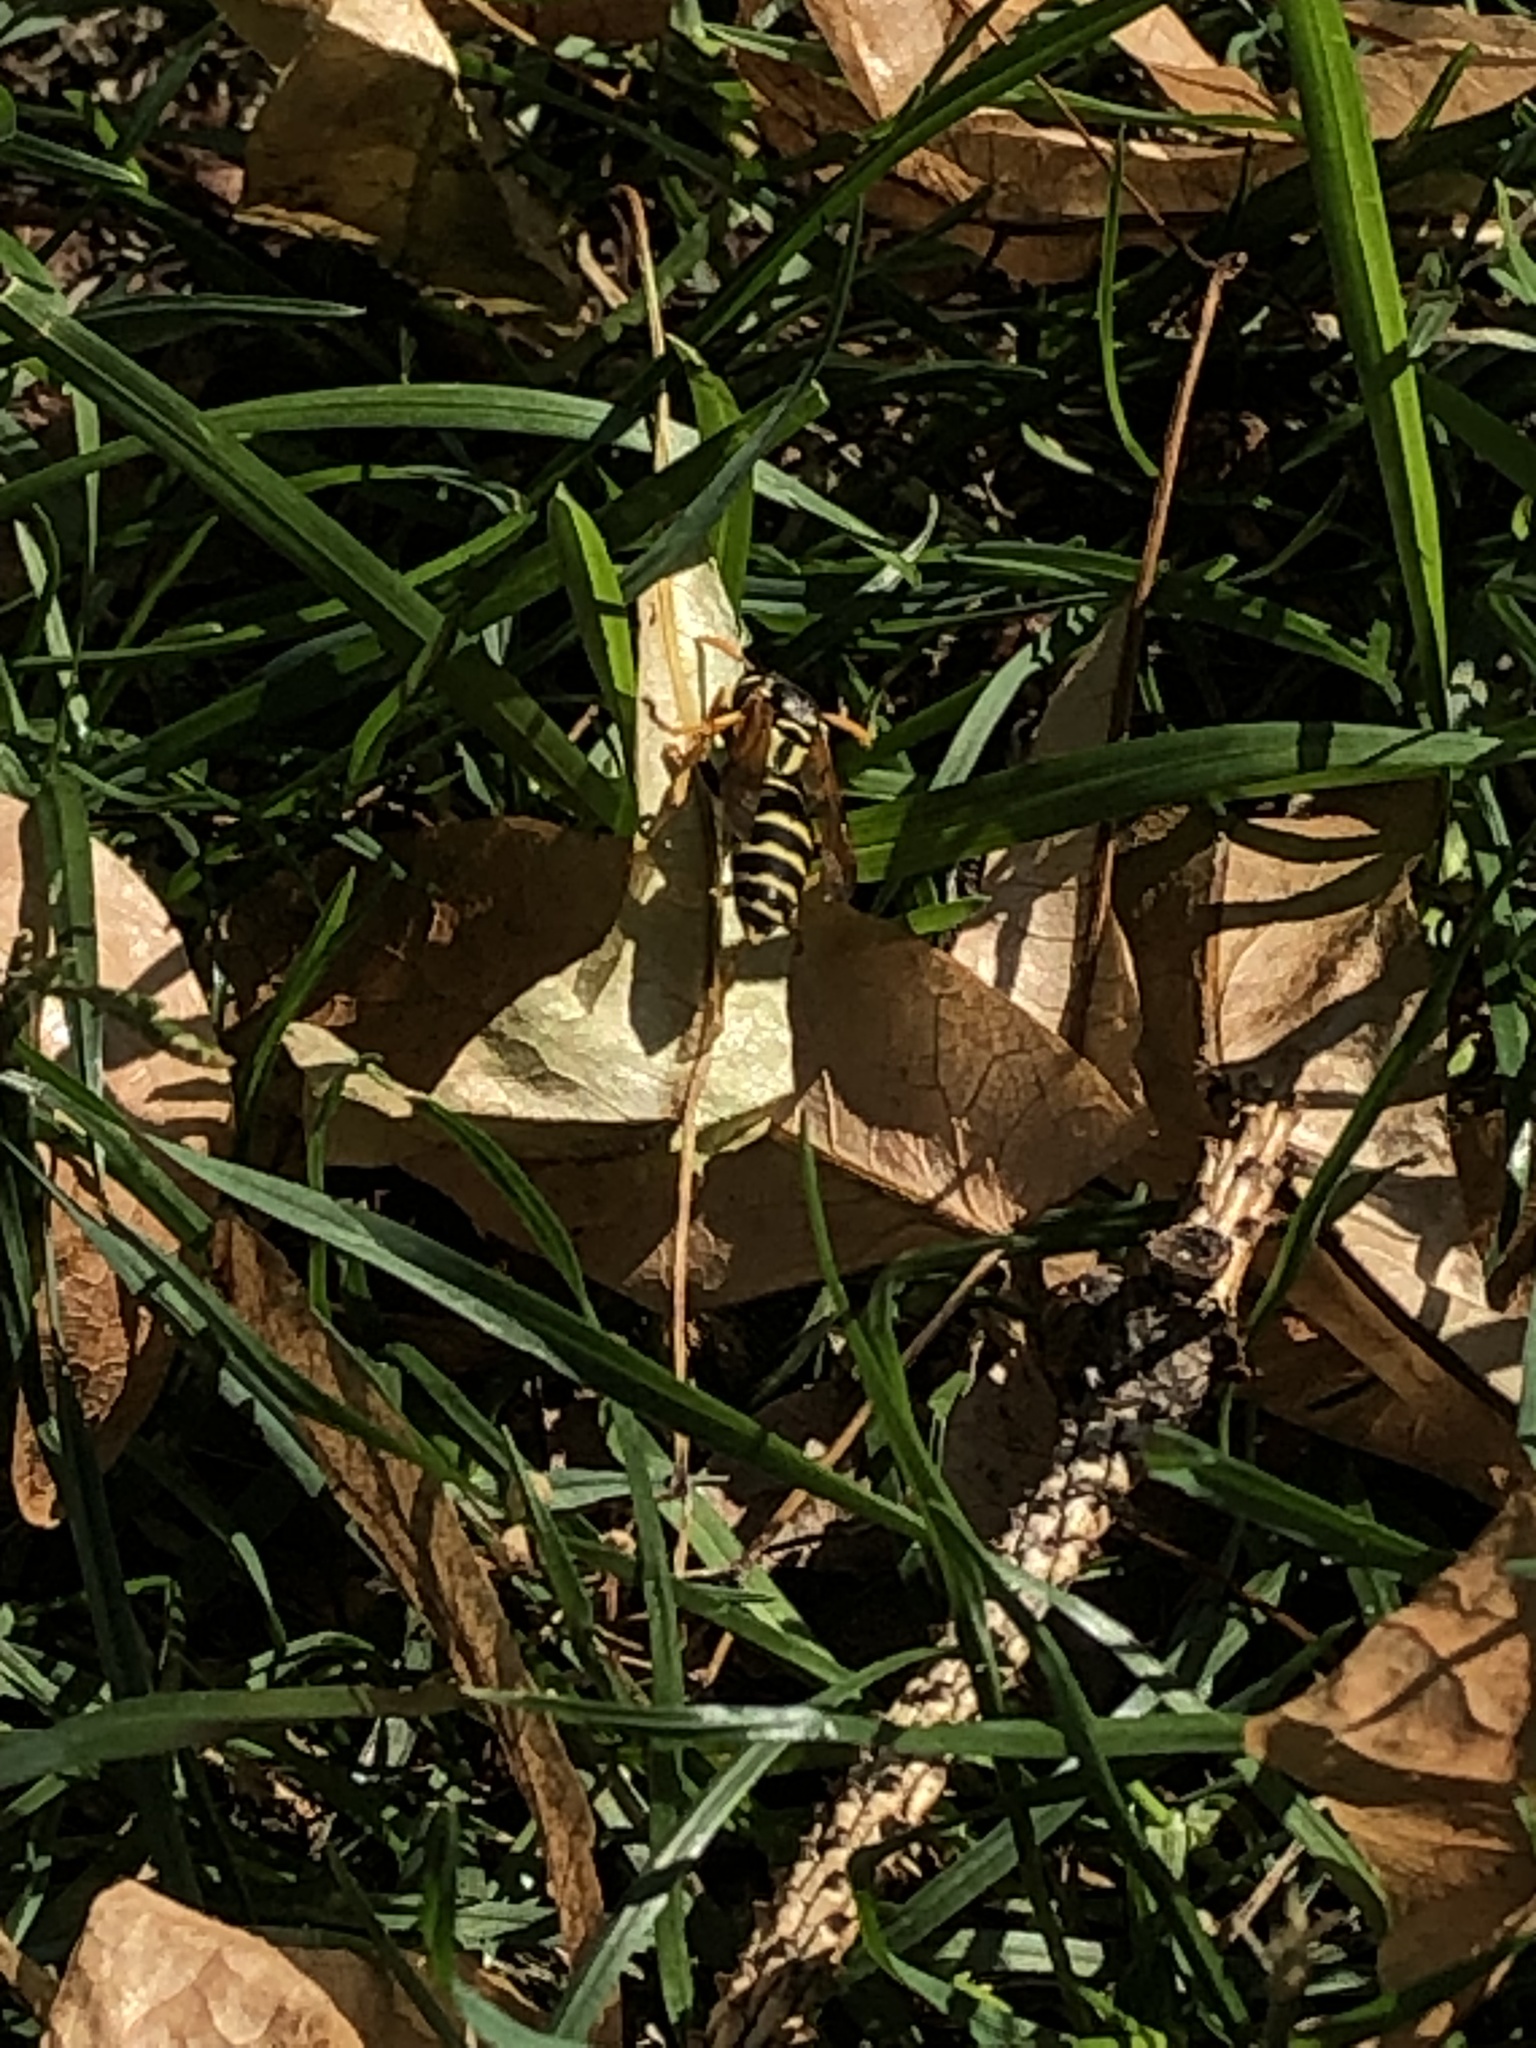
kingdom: Animalia
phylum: Arthropoda
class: Insecta
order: Hymenoptera
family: Eumenidae
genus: Polistes
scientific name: Polistes dominula
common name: Paper wasp
